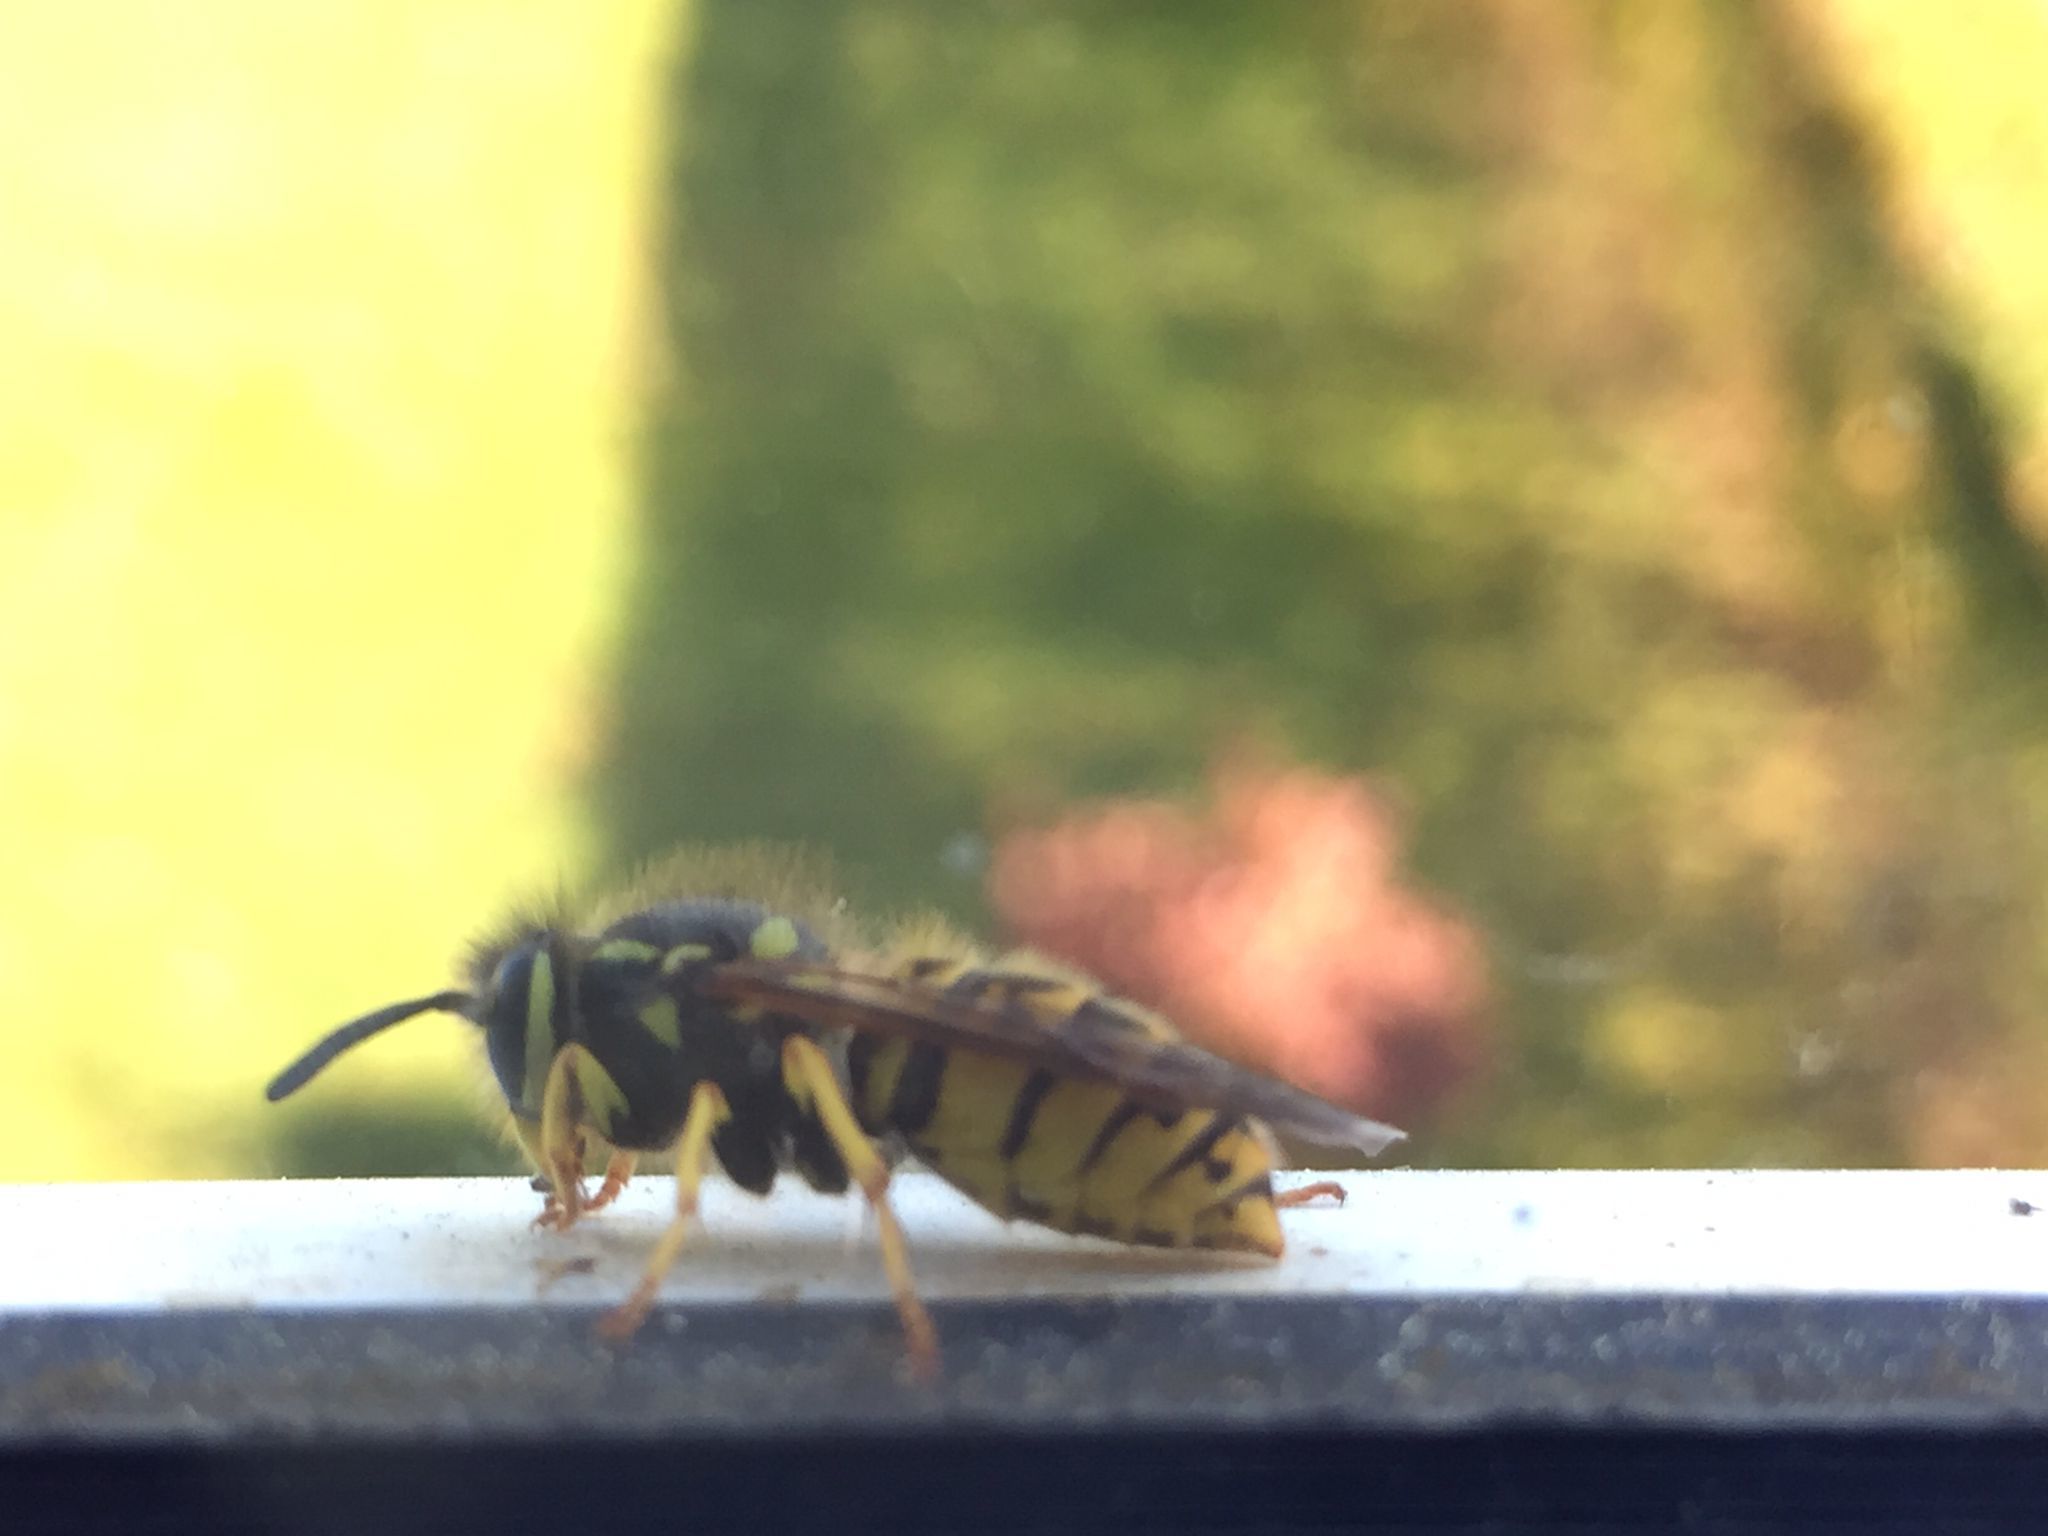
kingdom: Animalia
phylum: Arthropoda
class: Insecta
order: Hymenoptera
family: Vespidae
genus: Vespula
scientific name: Vespula germanica
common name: German wasp
